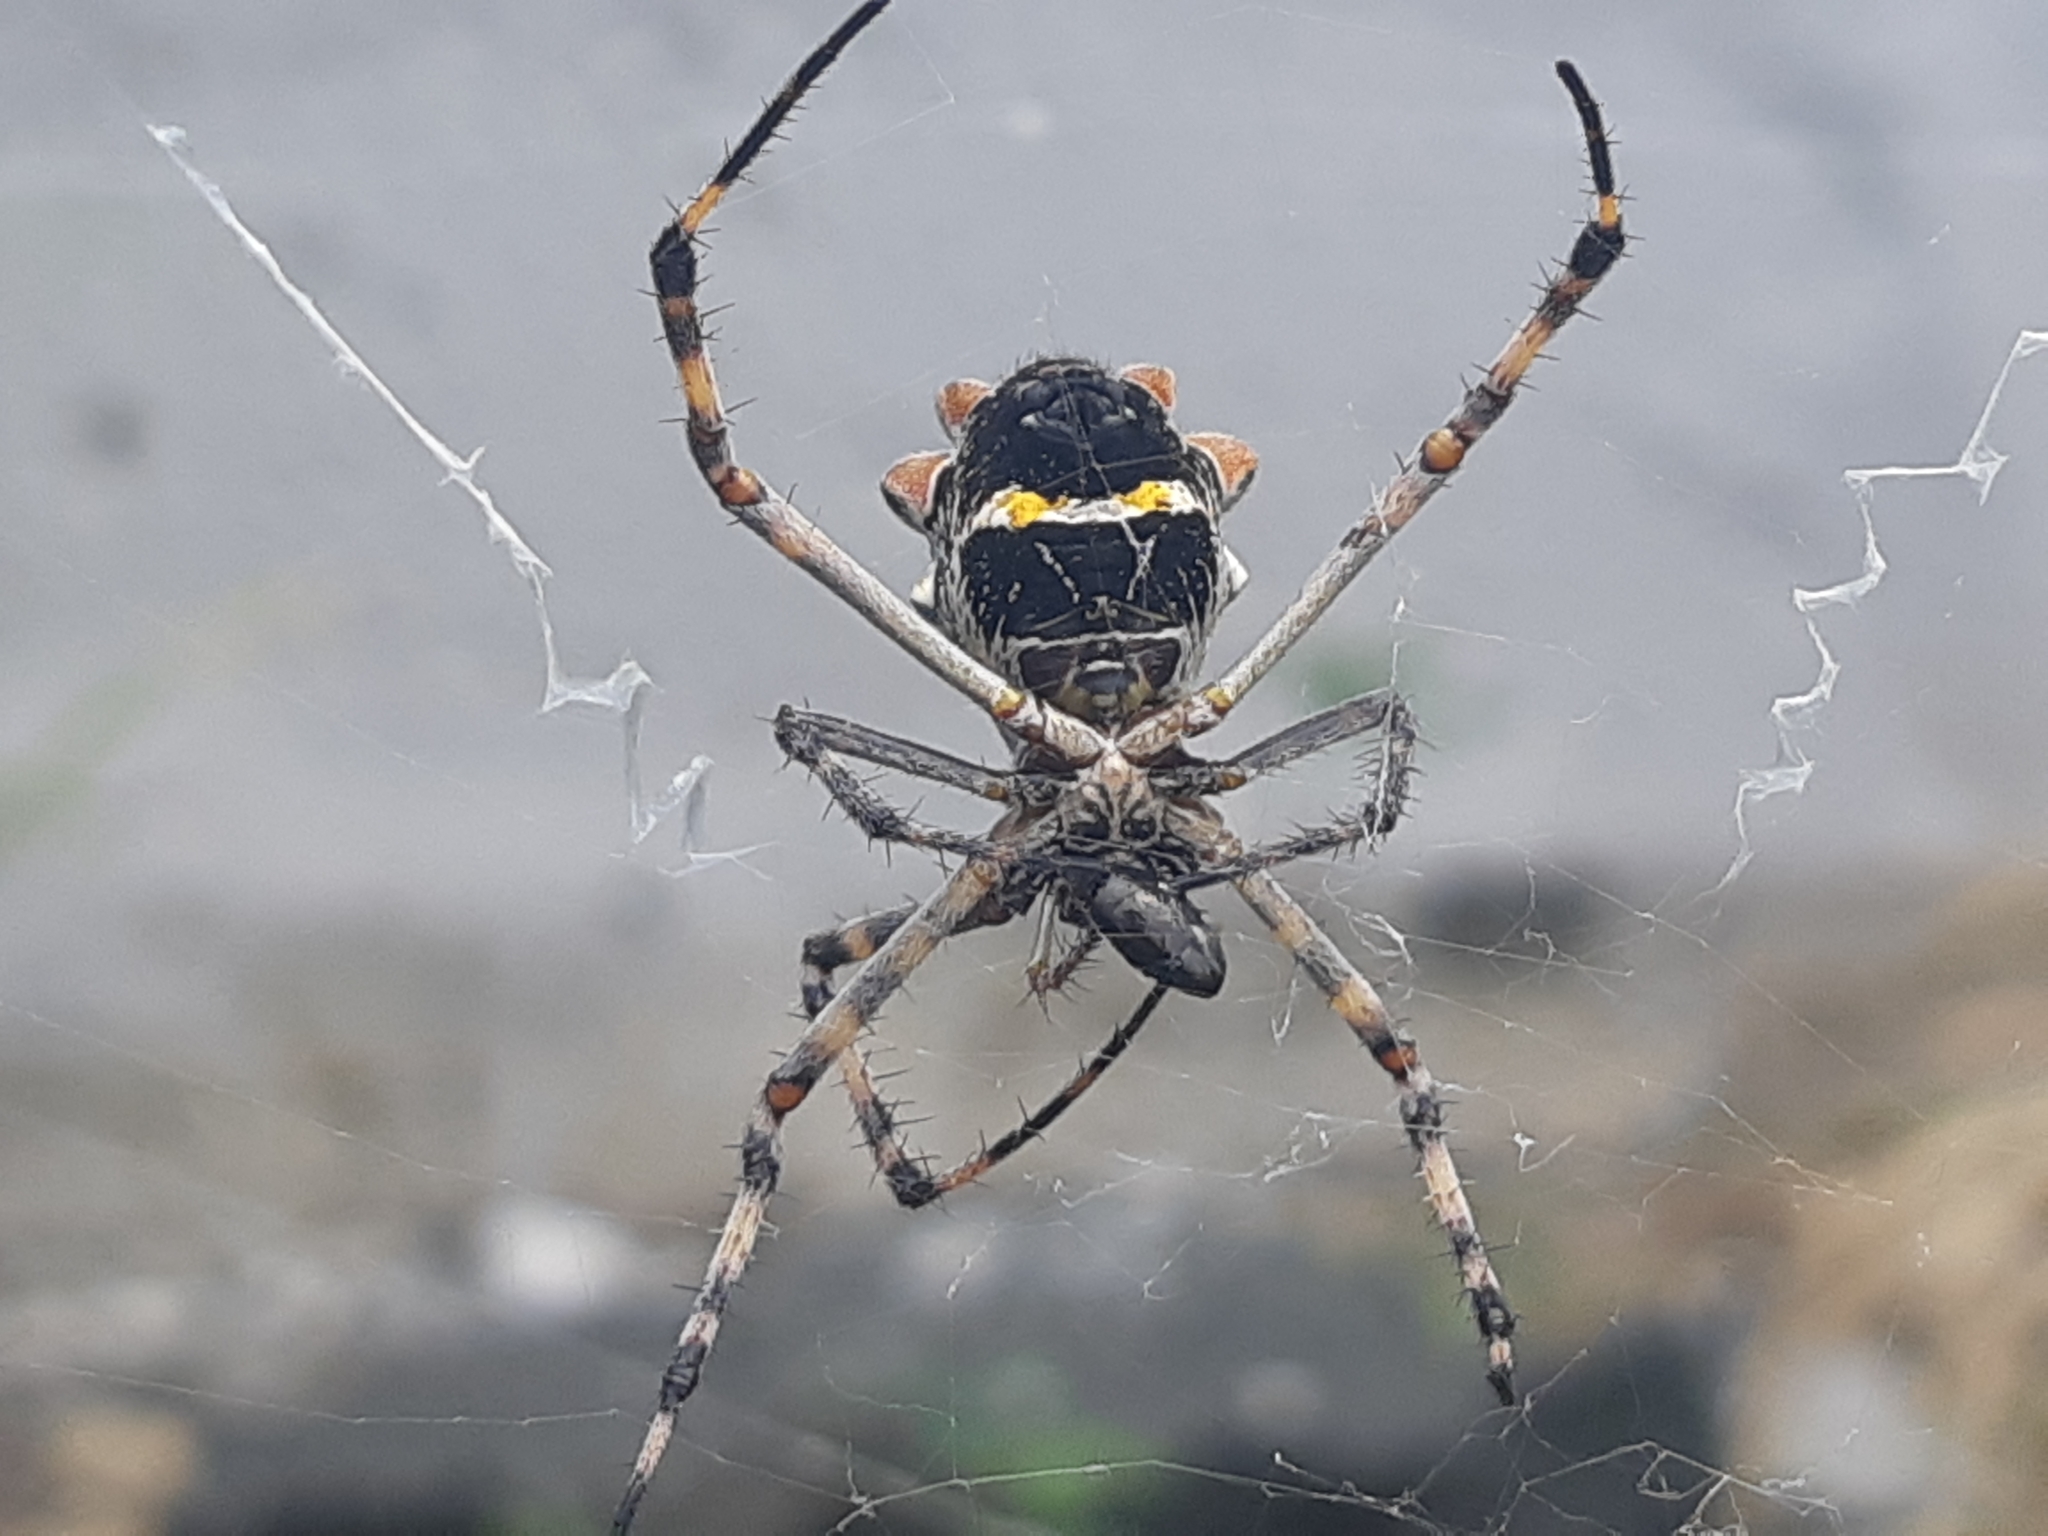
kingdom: Animalia
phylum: Arthropoda
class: Arachnida
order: Araneae
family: Araneidae
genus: Argiope
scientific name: Argiope argentata
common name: Orb weavers
